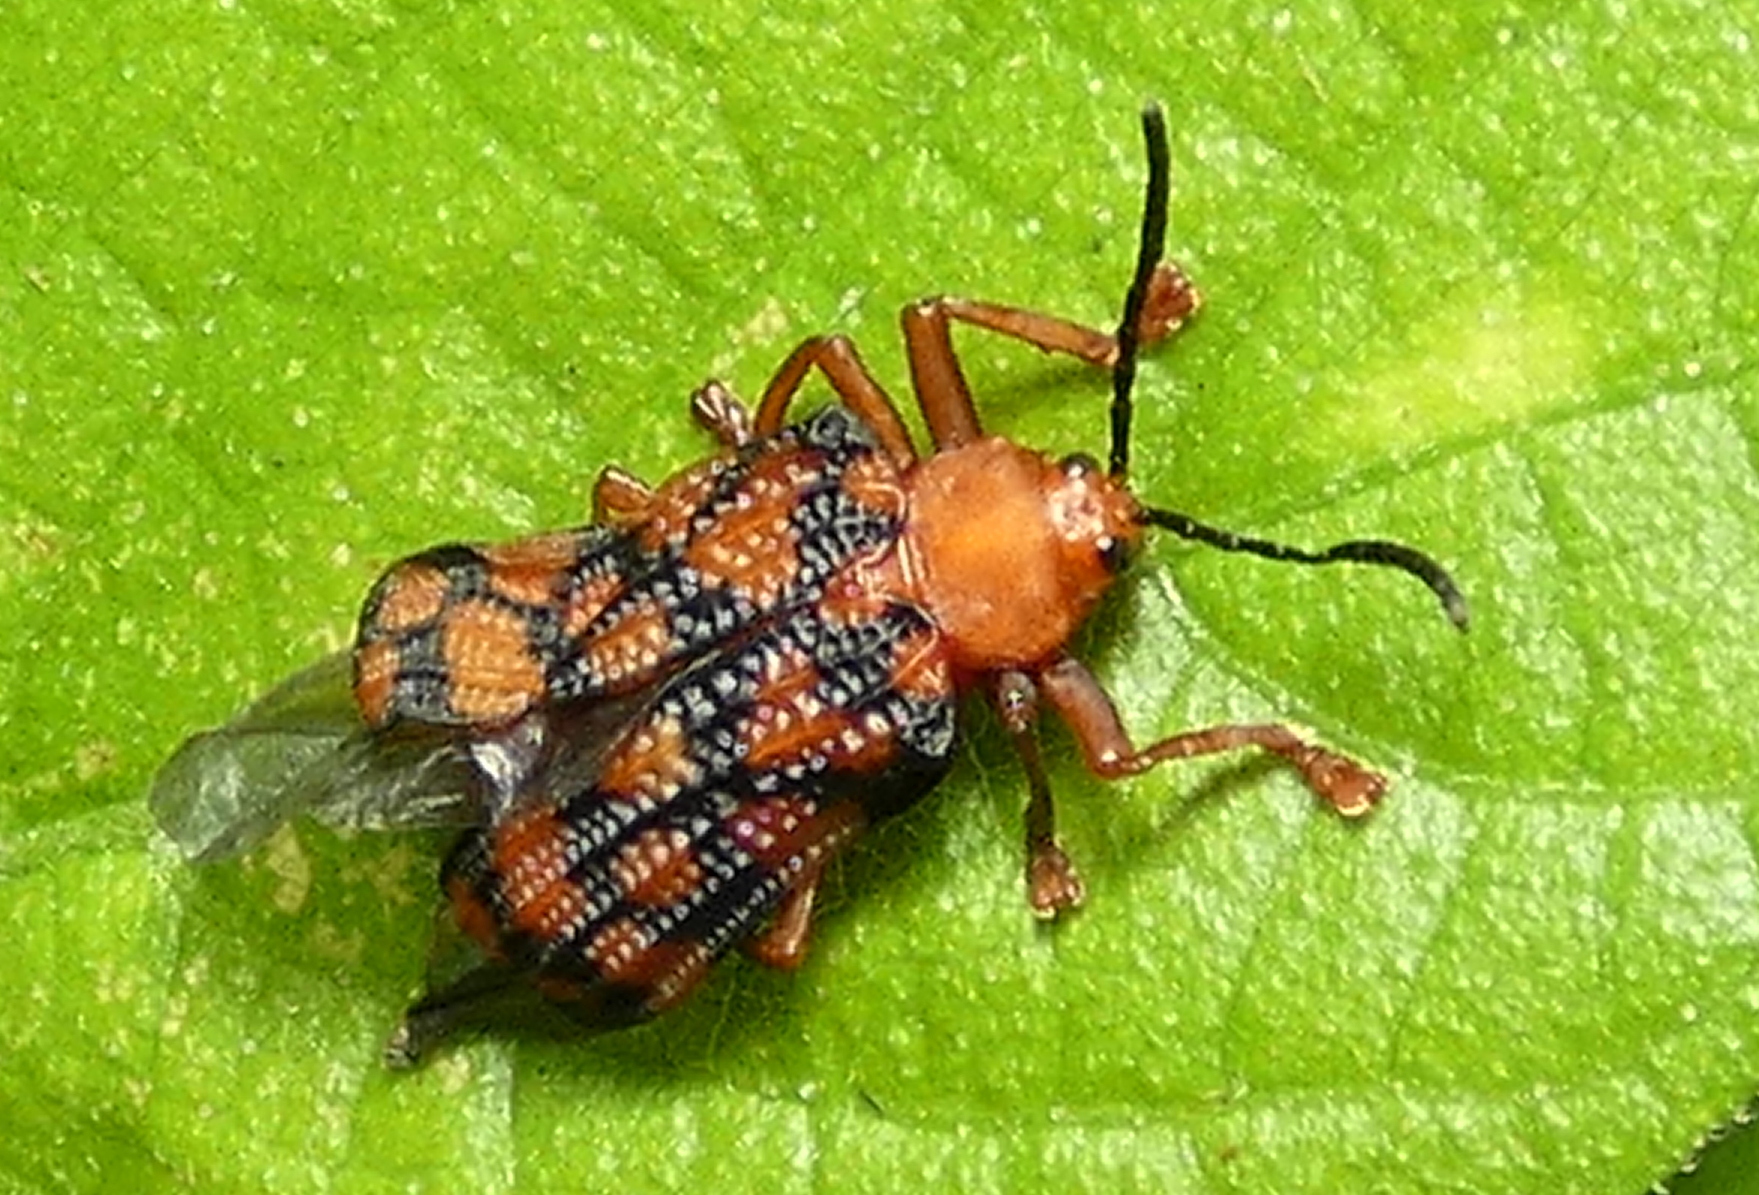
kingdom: Animalia
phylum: Arthropoda
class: Insecta
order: Coleoptera
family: Chrysomelidae
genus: Sceloenopla
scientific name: Sceloenopla maculata
